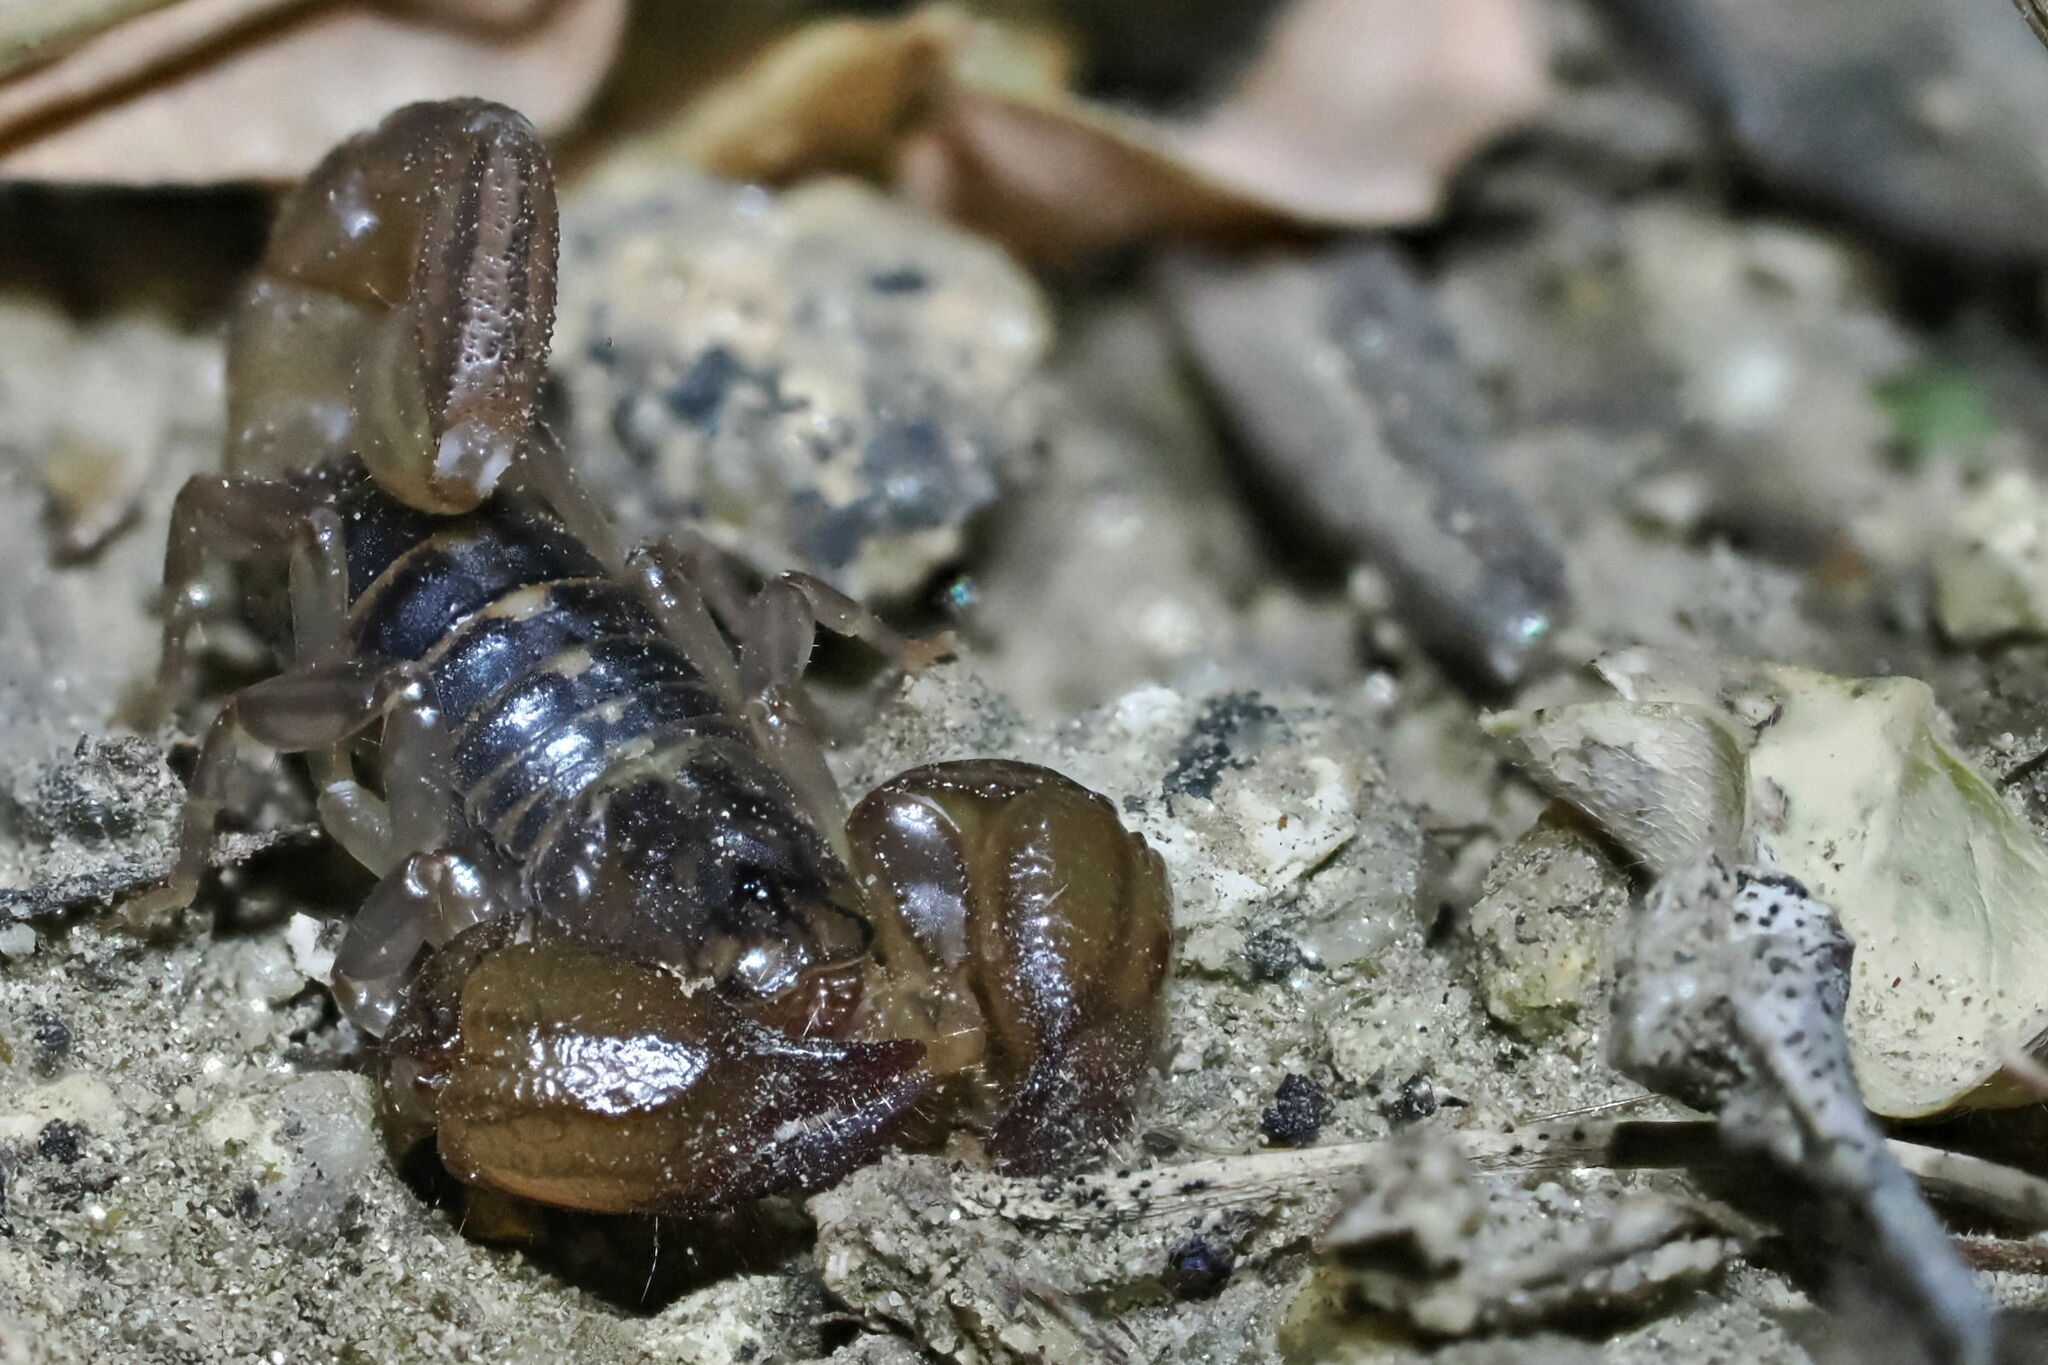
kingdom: Animalia
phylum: Arthropoda
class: Arachnida
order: Scorpiones
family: Chactidae
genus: Nullibrotheas
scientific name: Nullibrotheas allenii
